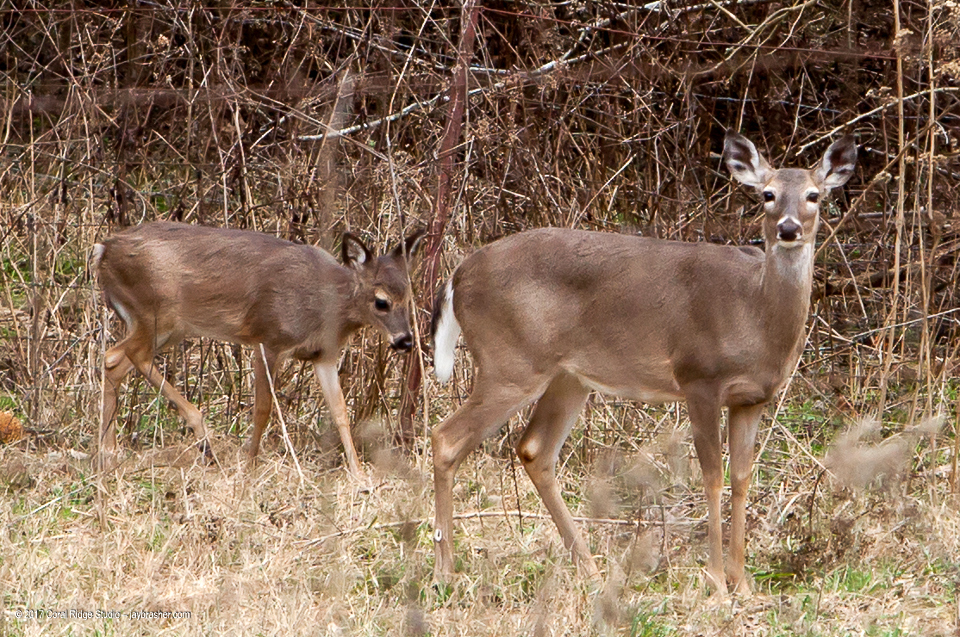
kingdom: Animalia
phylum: Chordata
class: Mammalia
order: Artiodactyla
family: Cervidae
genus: Odocoileus
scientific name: Odocoileus virginianus
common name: White-tailed deer
